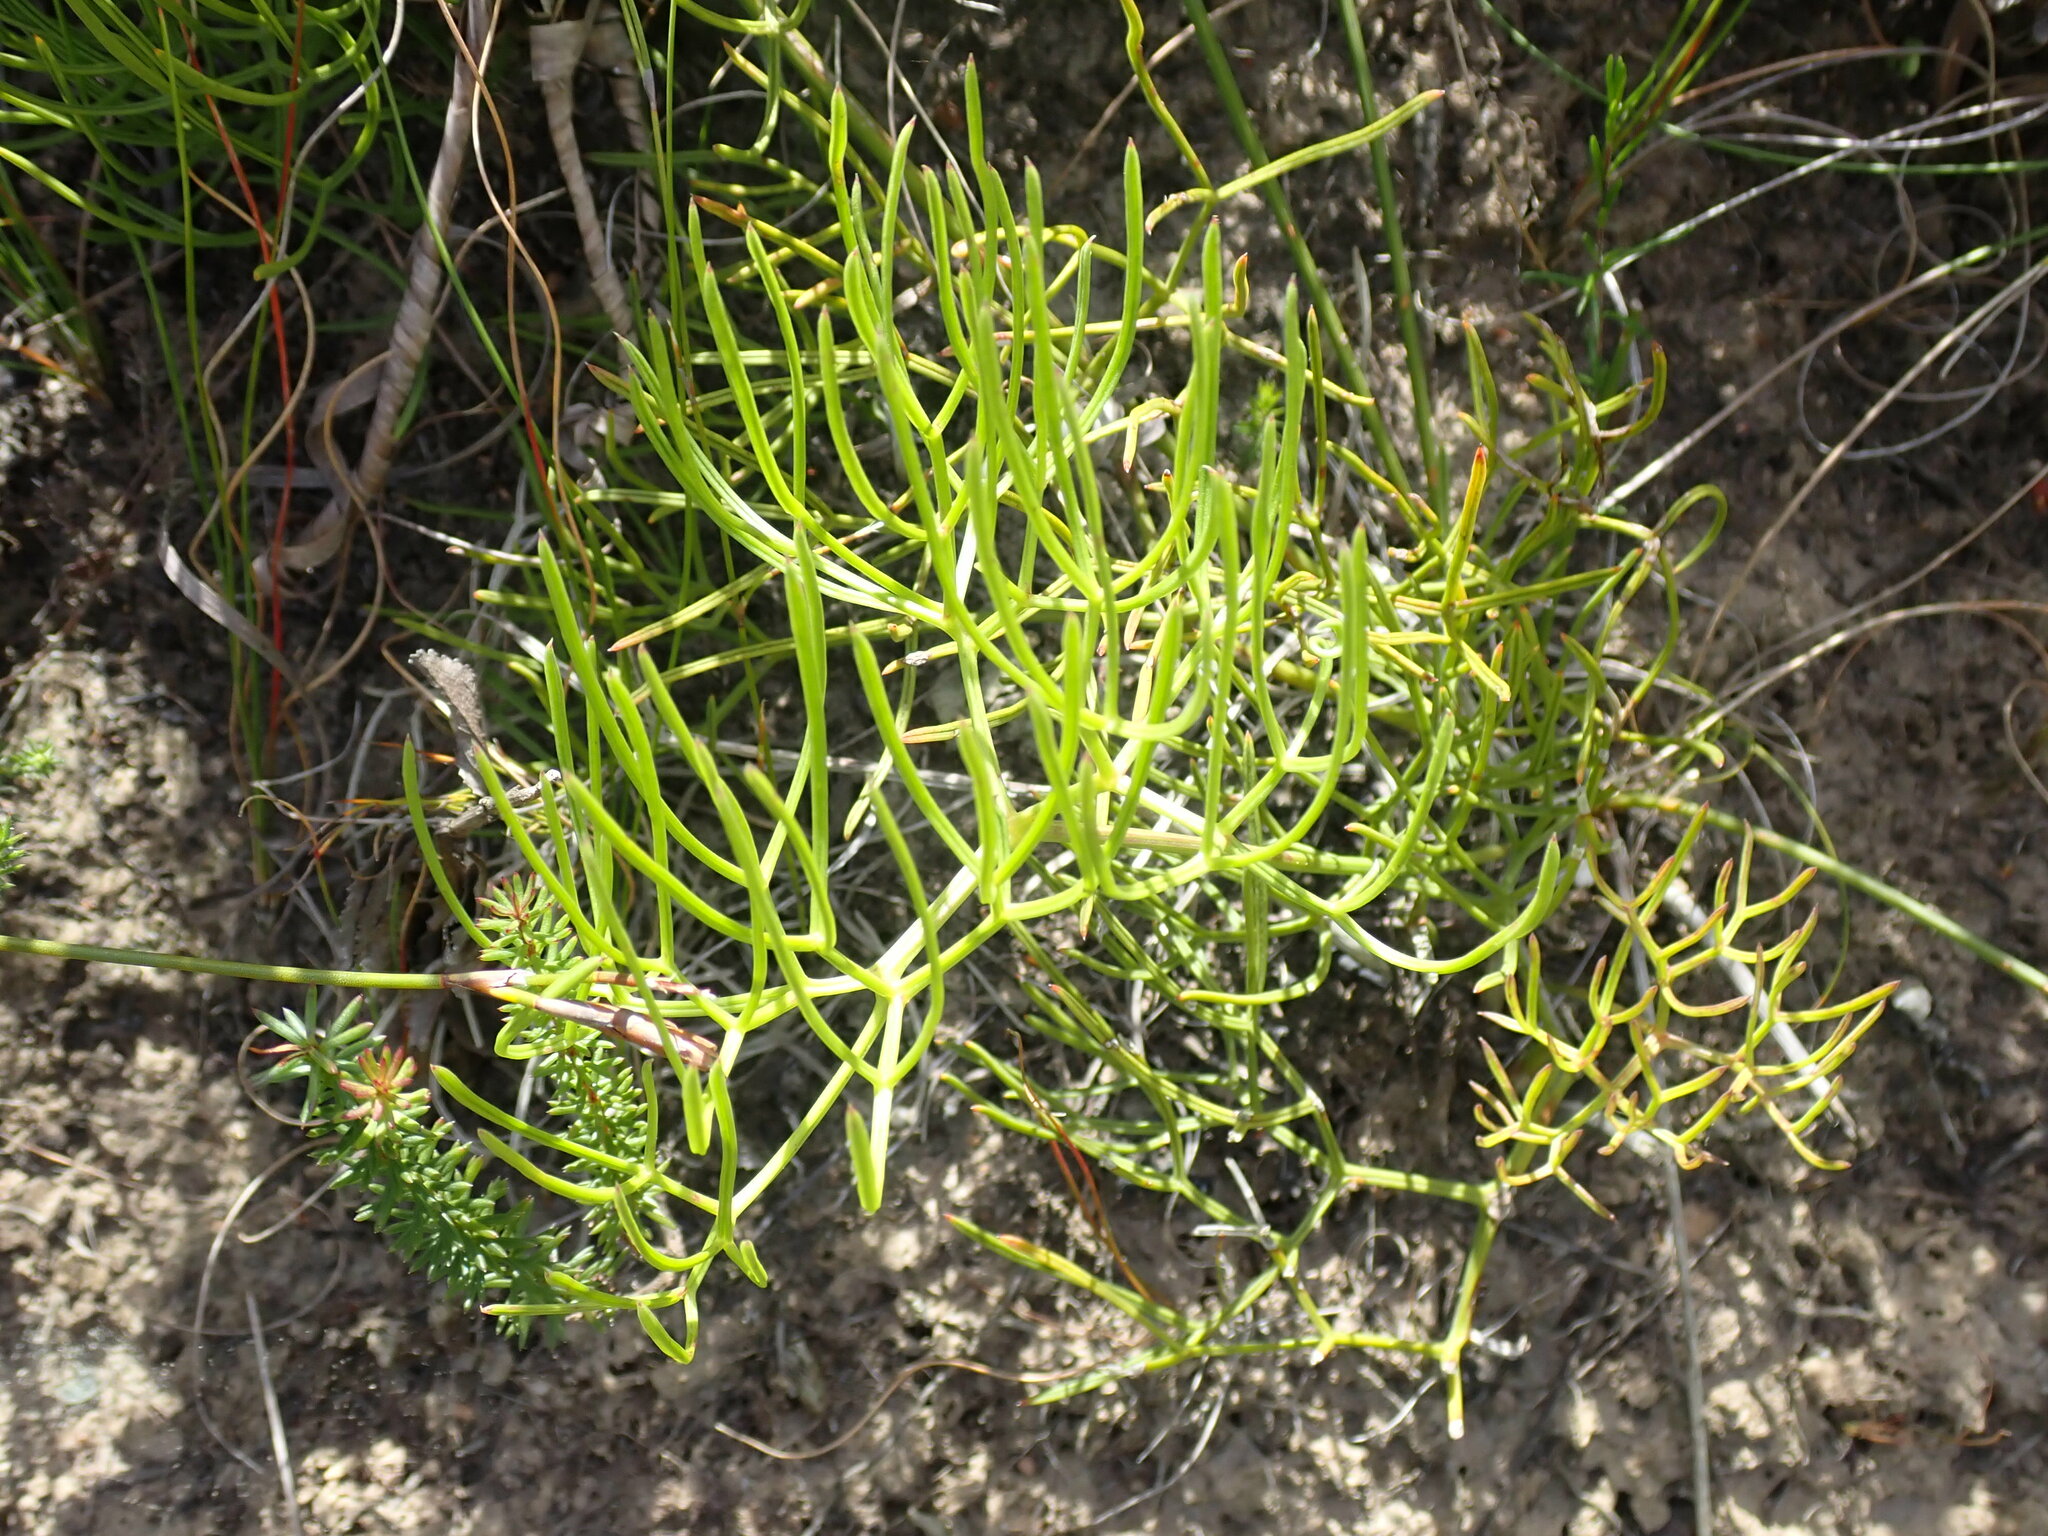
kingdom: Plantae
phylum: Tracheophyta
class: Magnoliopsida
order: Apiales
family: Apiaceae
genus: Nanobubon
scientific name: Nanobubon capillaceum
